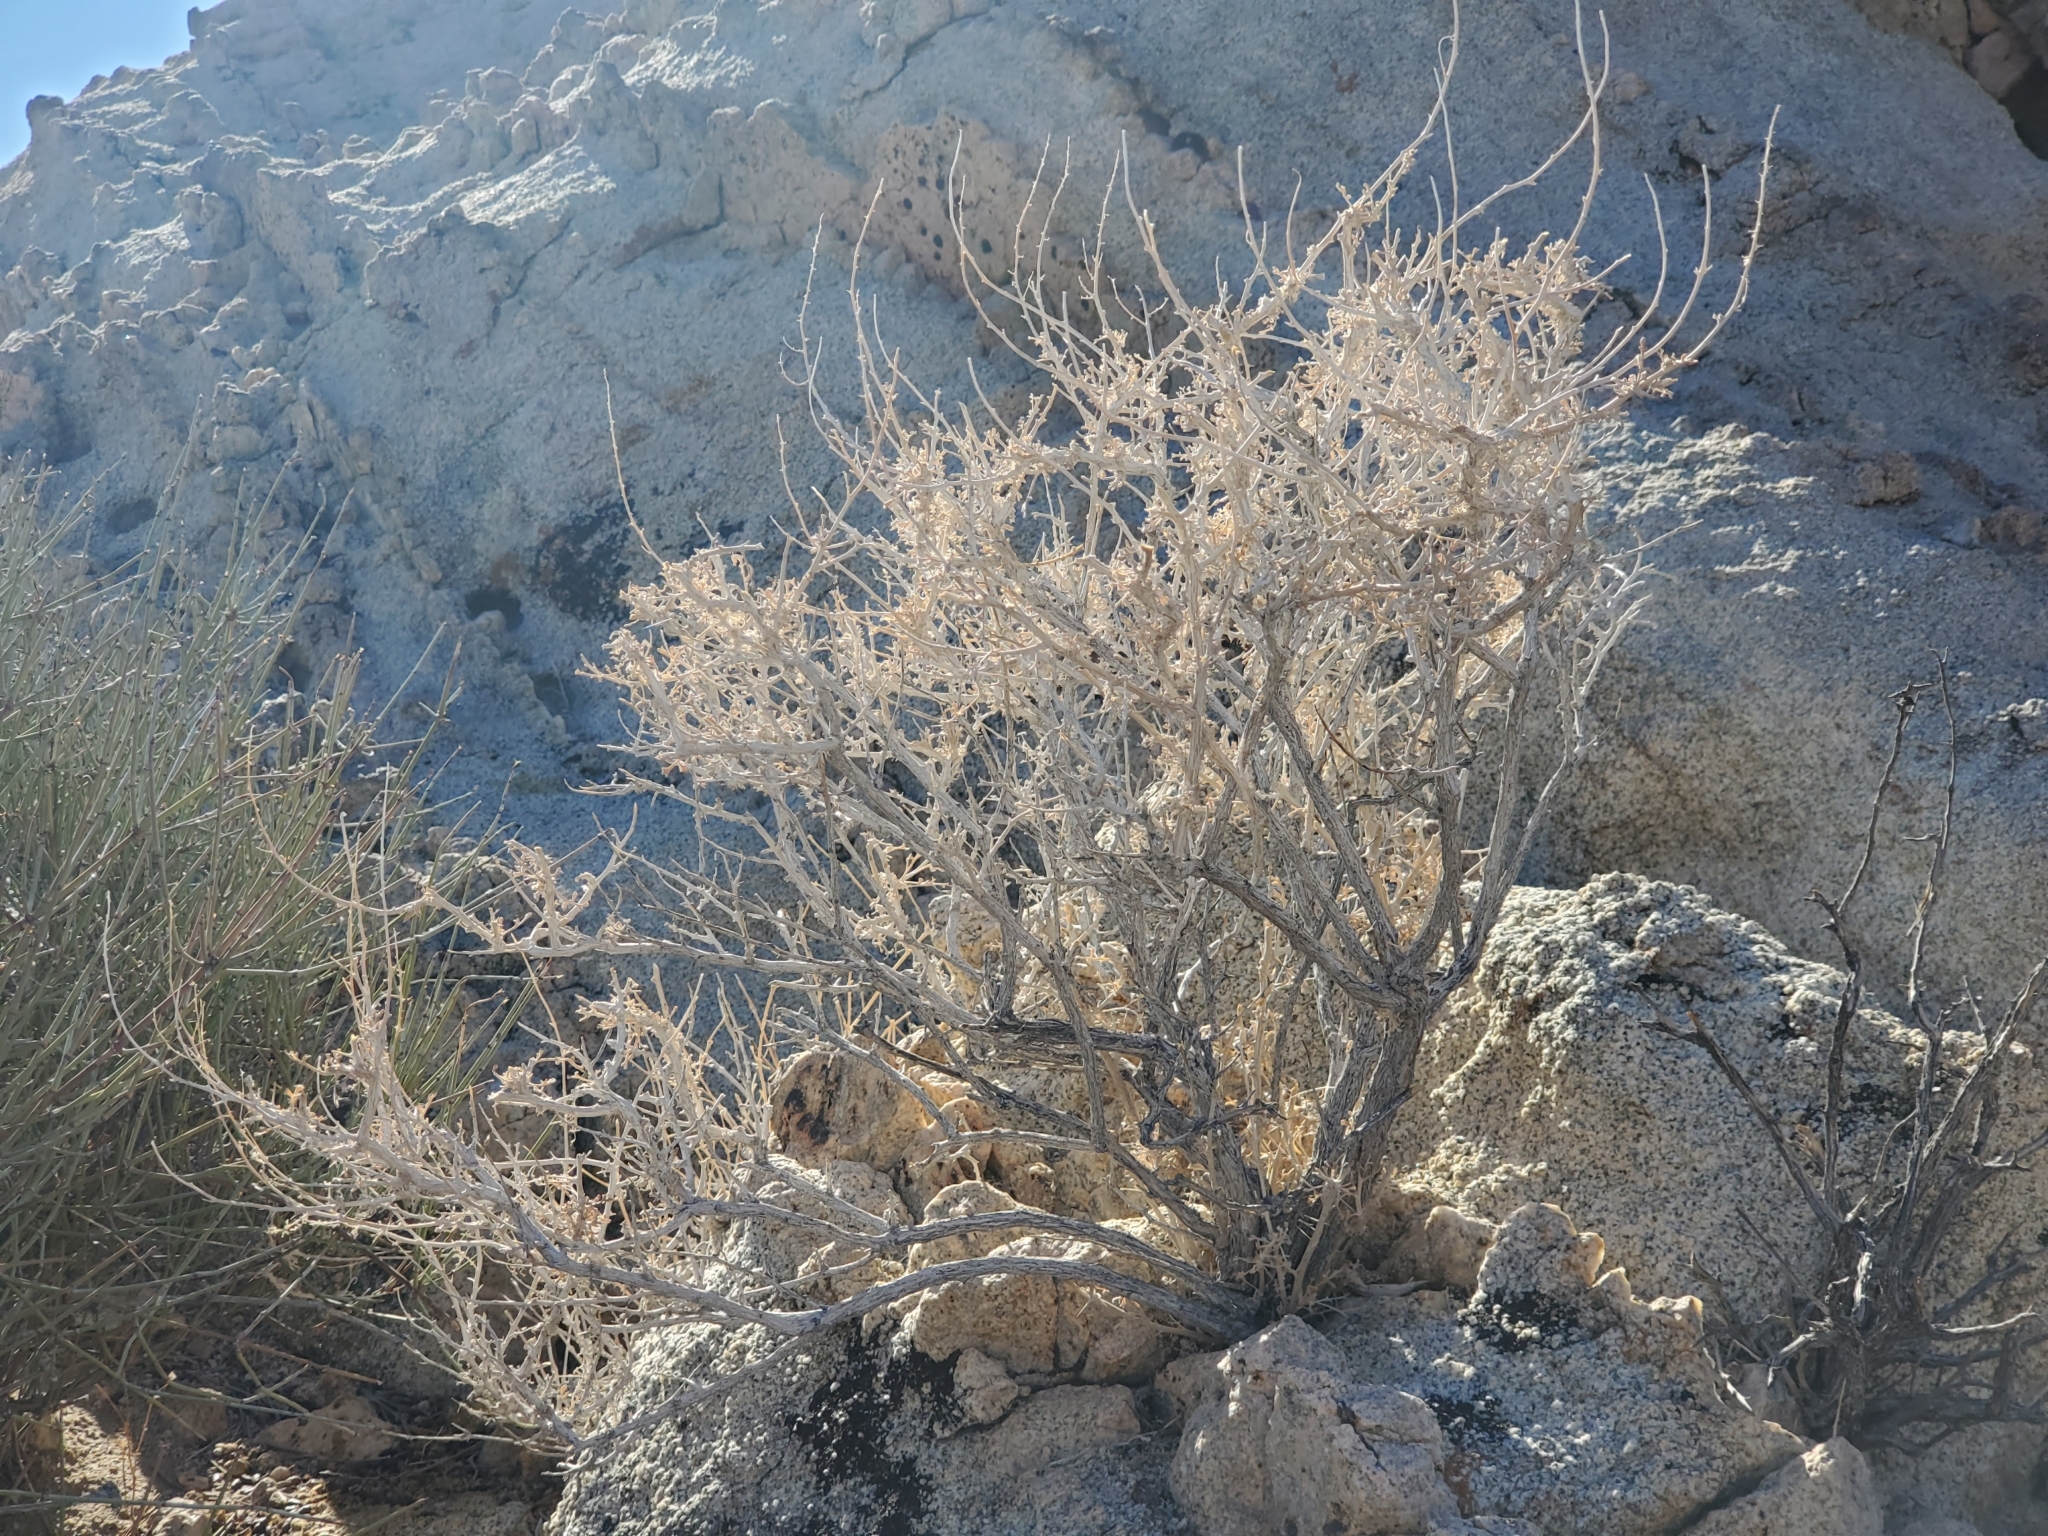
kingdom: Plantae
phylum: Tracheophyta
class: Magnoliopsida
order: Asterales
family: Asteraceae
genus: Ambrosia
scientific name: Ambrosia dumosa
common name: Bur-sage
